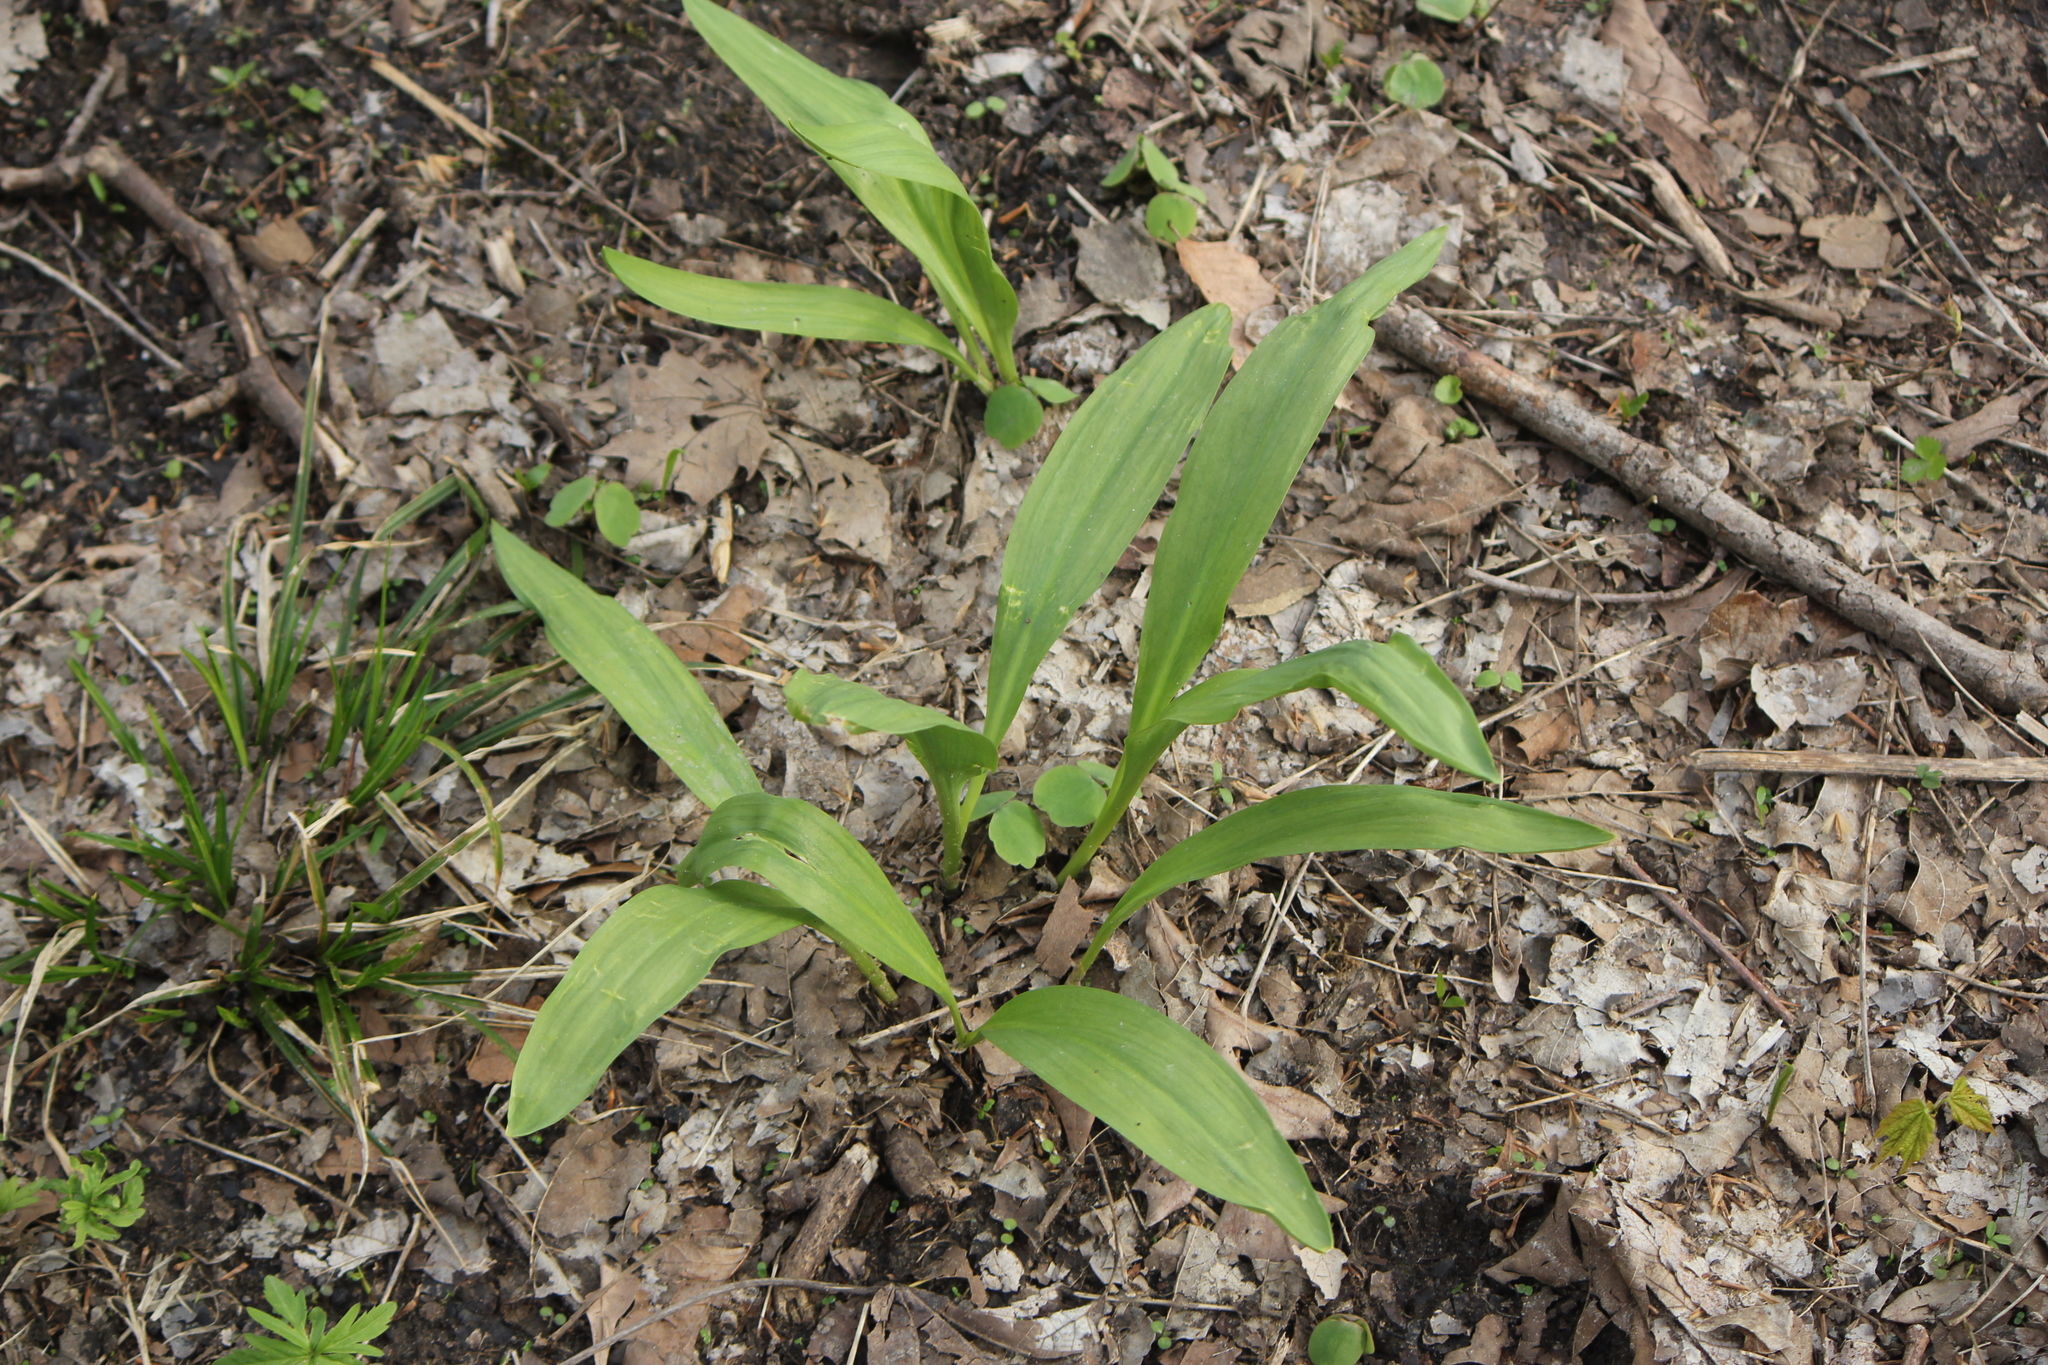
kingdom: Plantae
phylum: Tracheophyta
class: Liliopsida
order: Asparagales
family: Amaryllidaceae
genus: Allium
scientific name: Allium tricoccum
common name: Ramp
